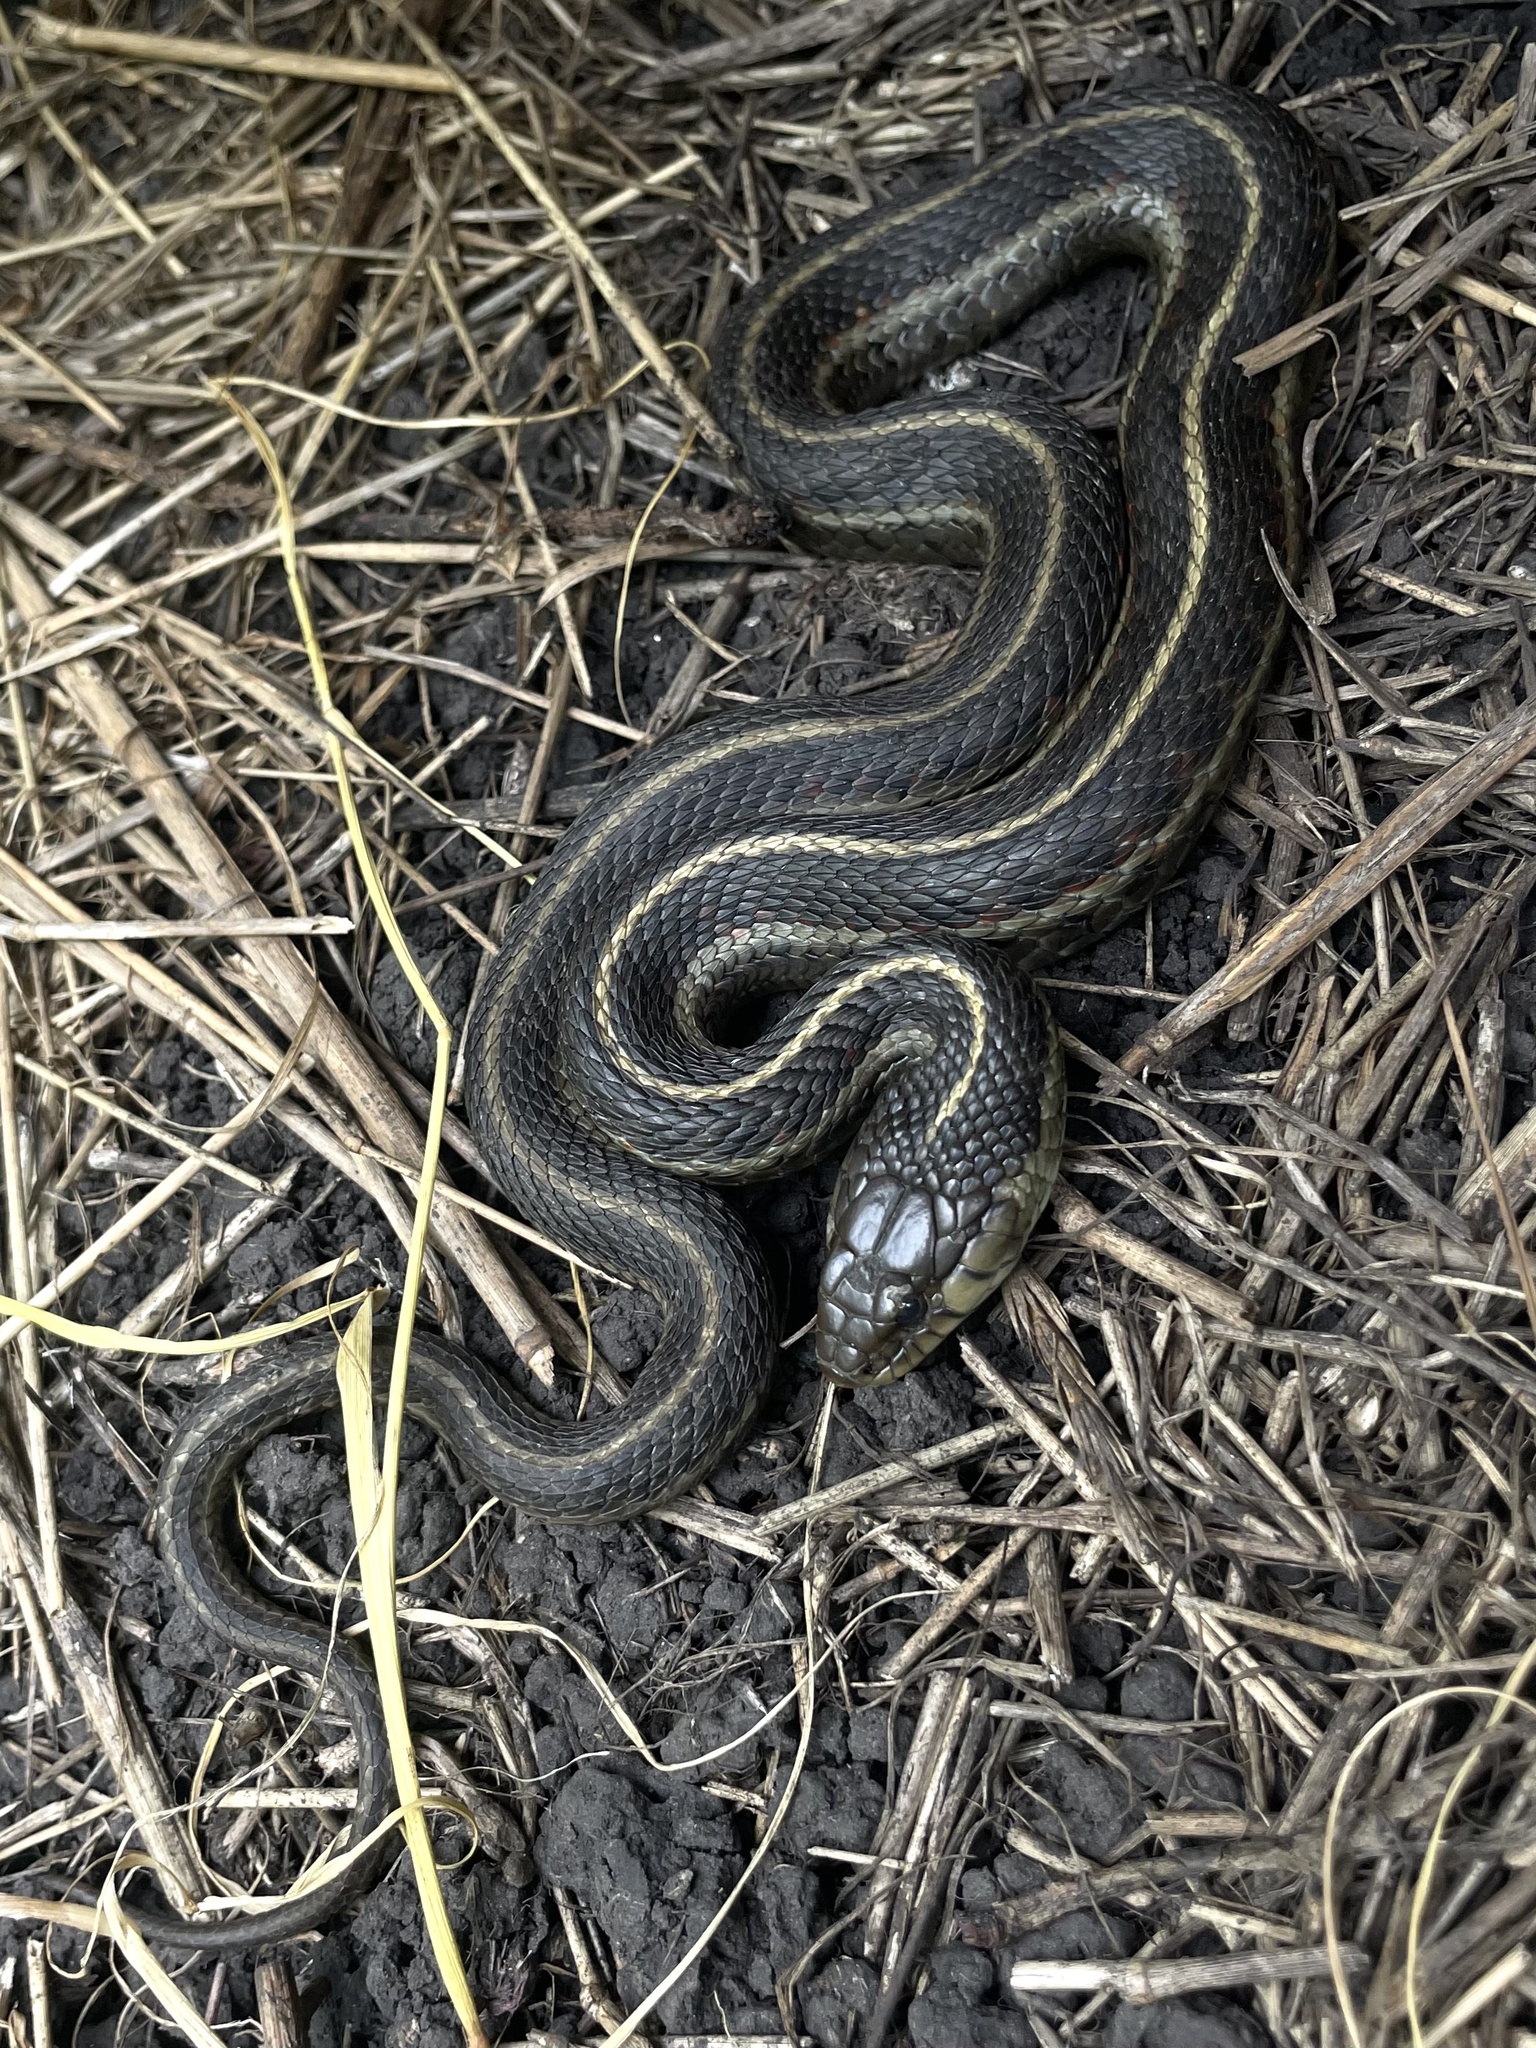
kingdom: Animalia
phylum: Chordata
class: Squamata
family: Colubridae
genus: Thamnophis
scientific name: Thamnophis elegans
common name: Western terrestrial garter snake
